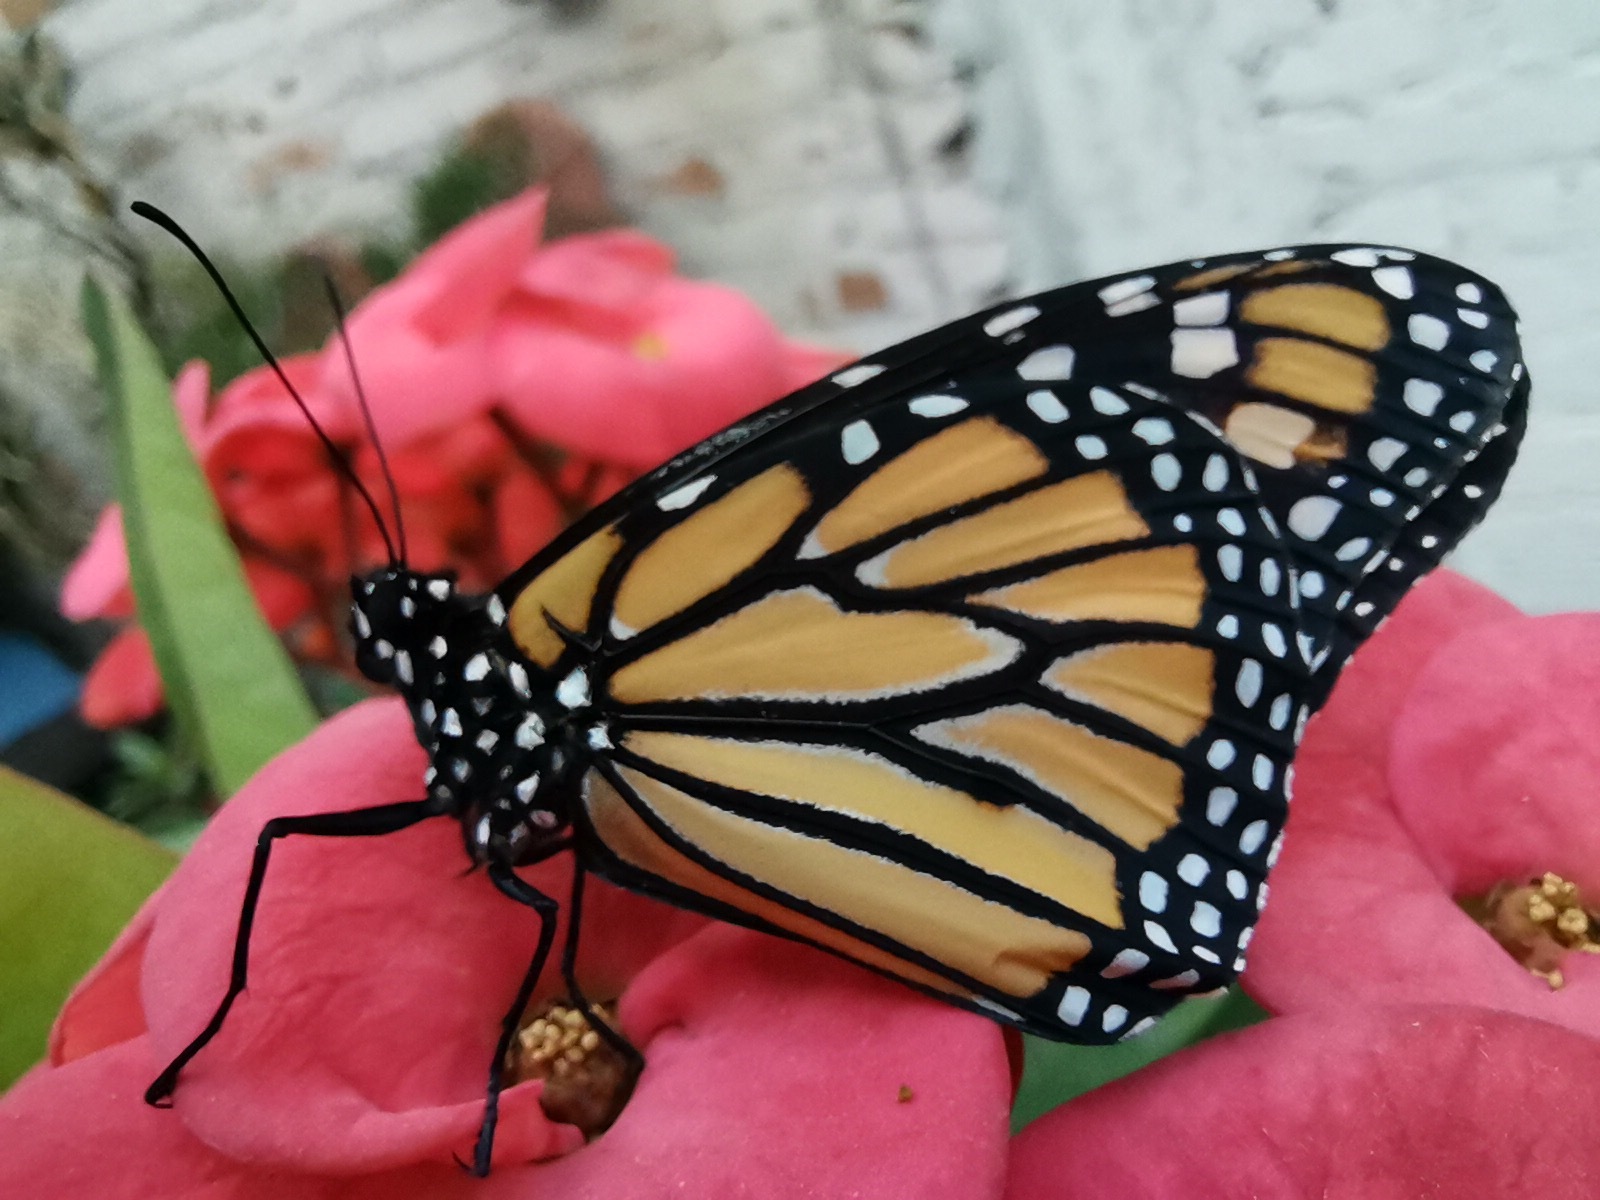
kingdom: Animalia
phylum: Arthropoda
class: Insecta
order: Lepidoptera
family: Nymphalidae
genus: Danaus
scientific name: Danaus plexippus
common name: Monarch
